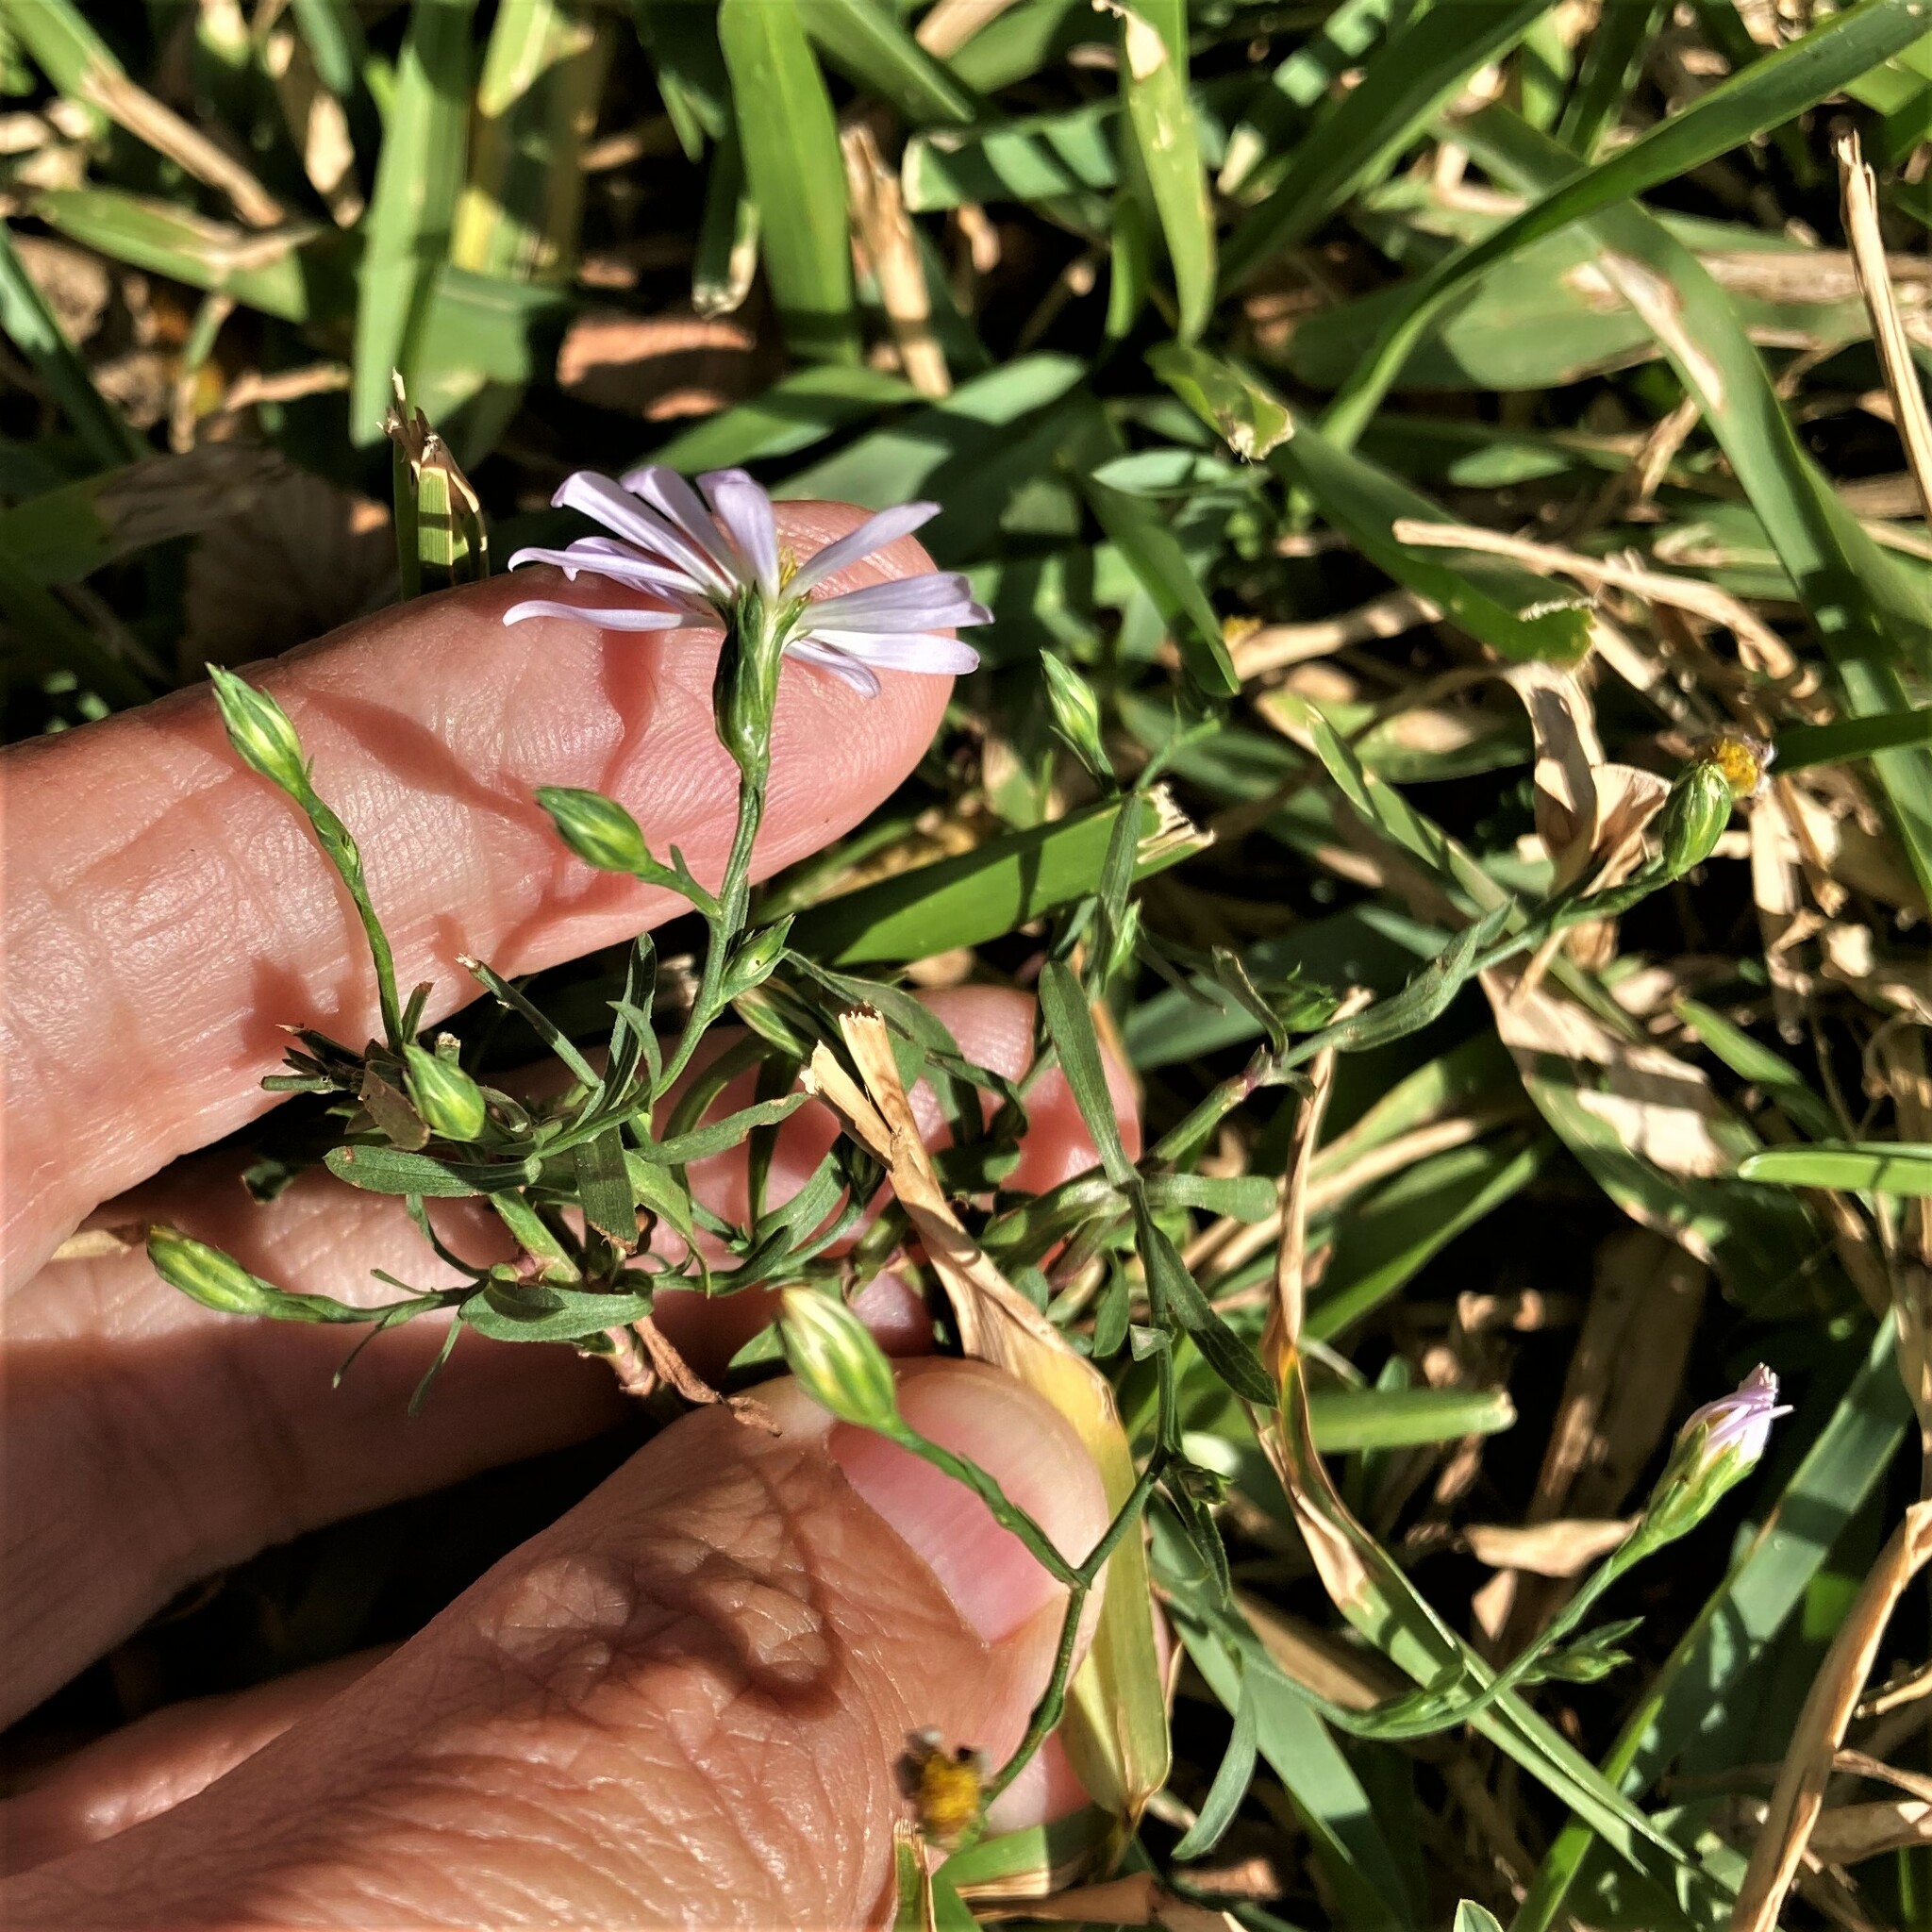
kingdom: Plantae
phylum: Tracheophyta
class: Magnoliopsida
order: Asterales
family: Asteraceae
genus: Symphyotrichum
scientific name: Symphyotrichum divaricatum
